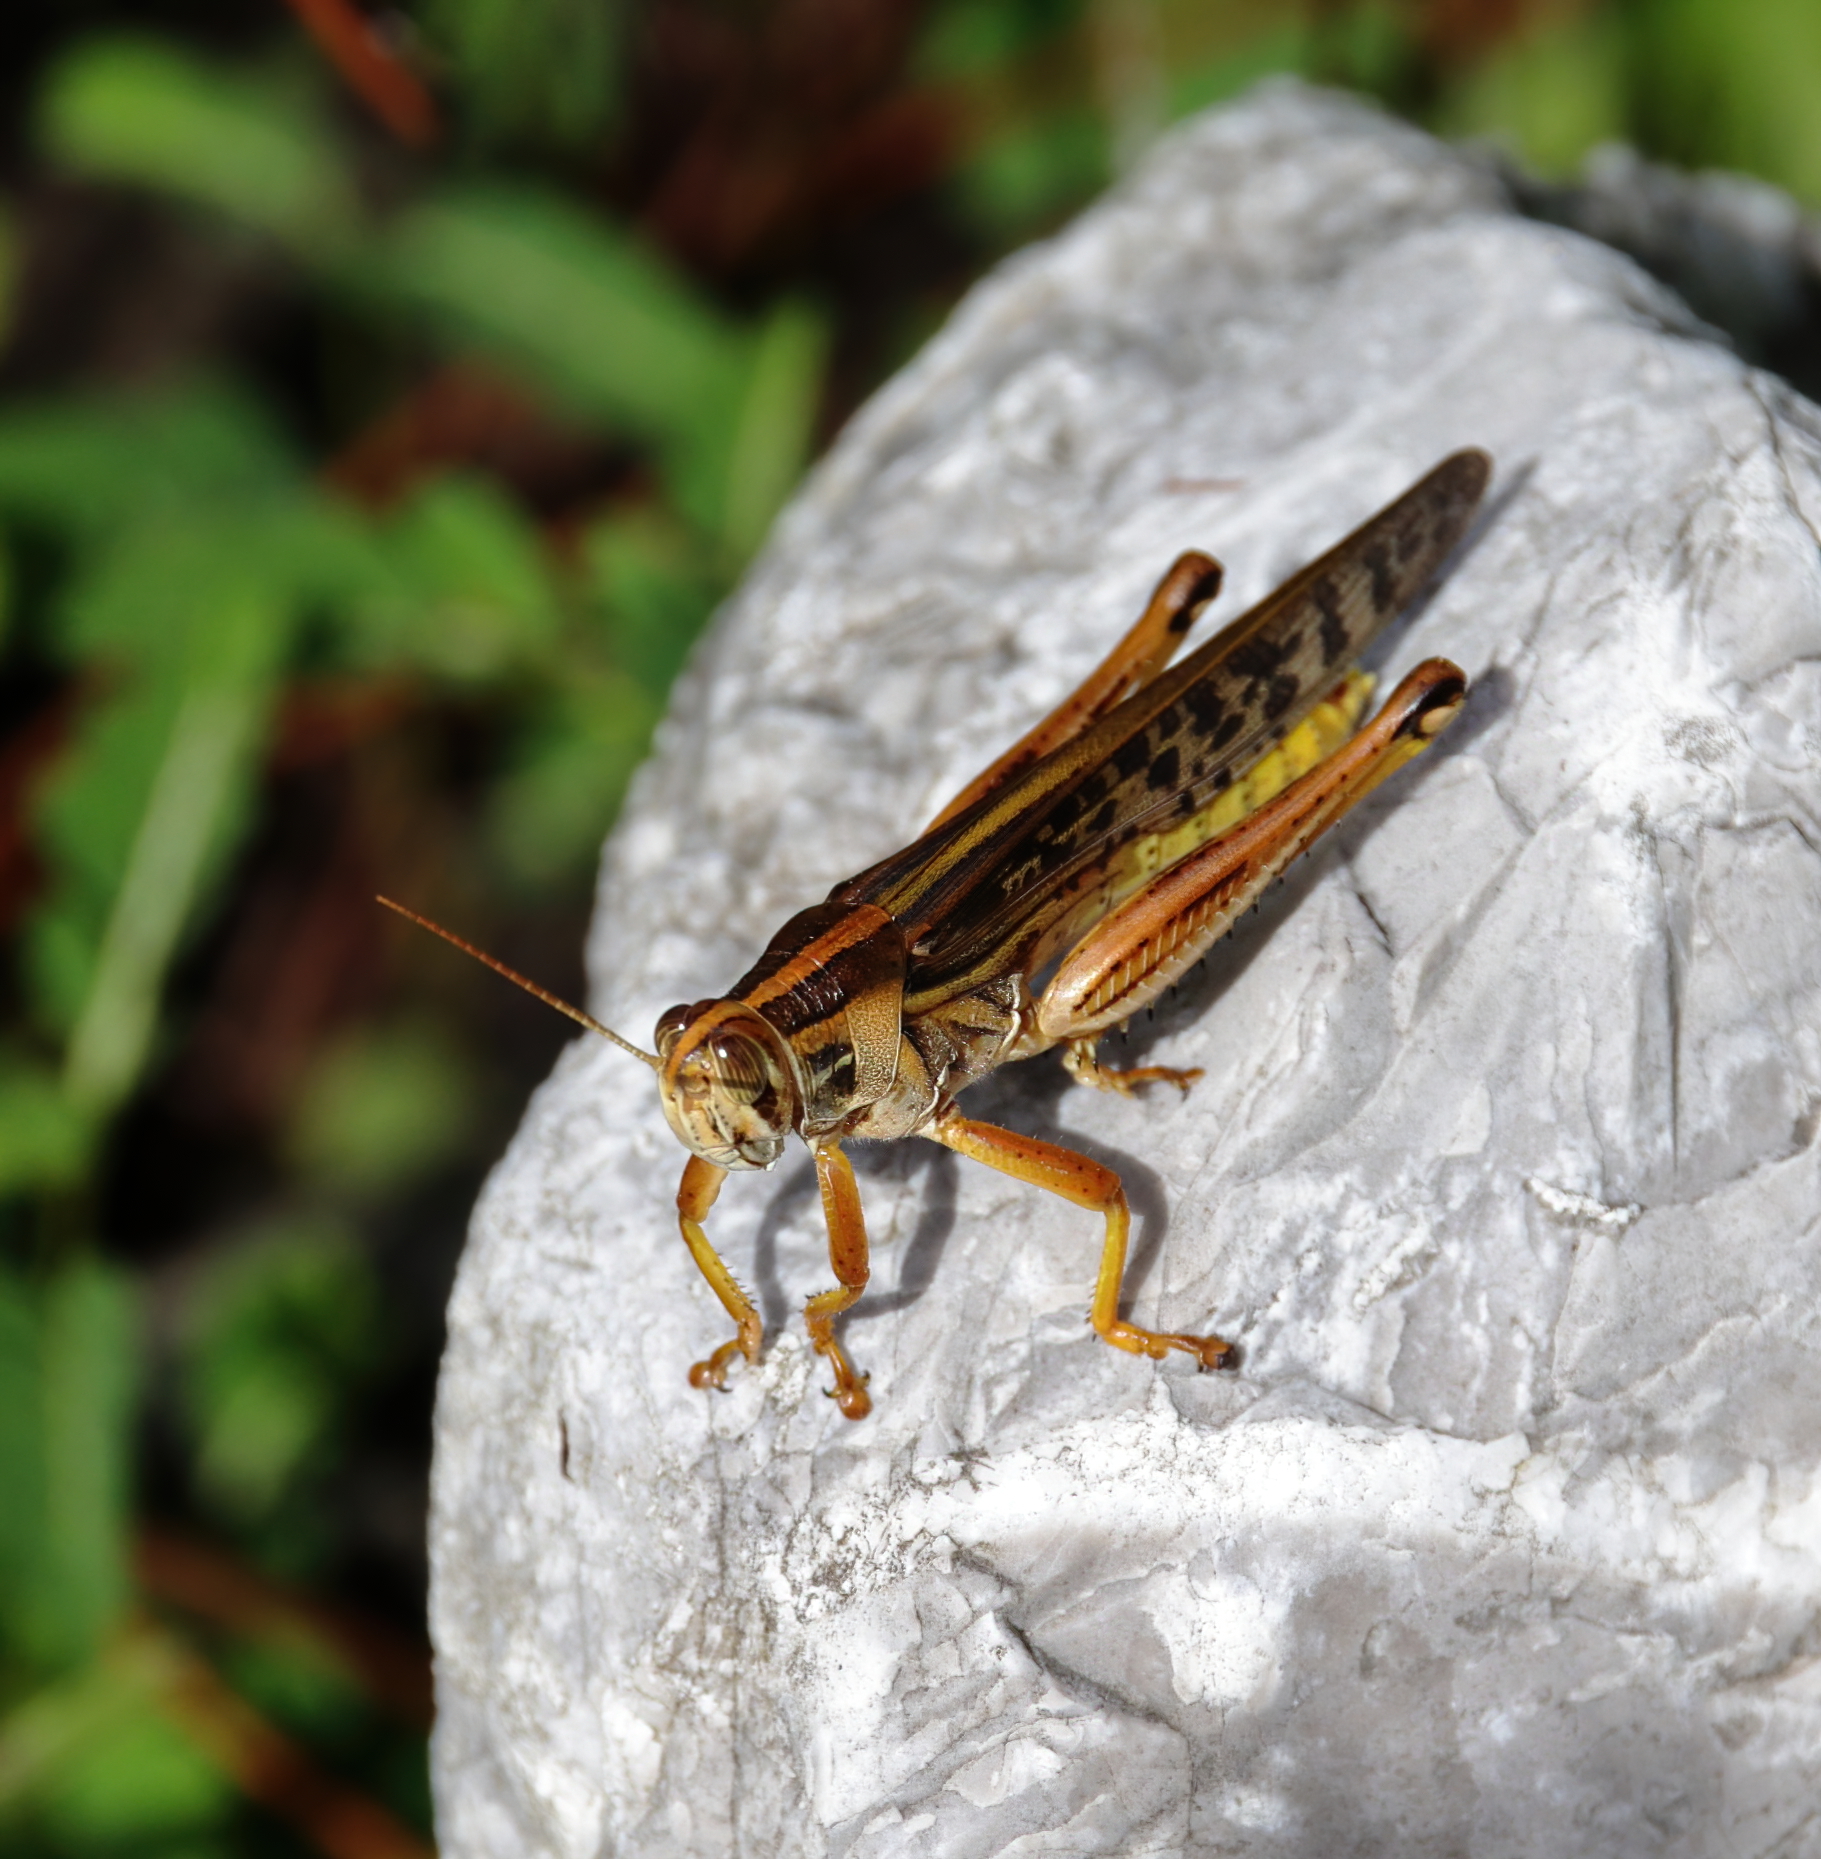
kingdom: Animalia
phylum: Arthropoda
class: Insecta
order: Orthoptera
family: Acrididae
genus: Schistocerca
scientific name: Schistocerca americana
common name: American bird locust
